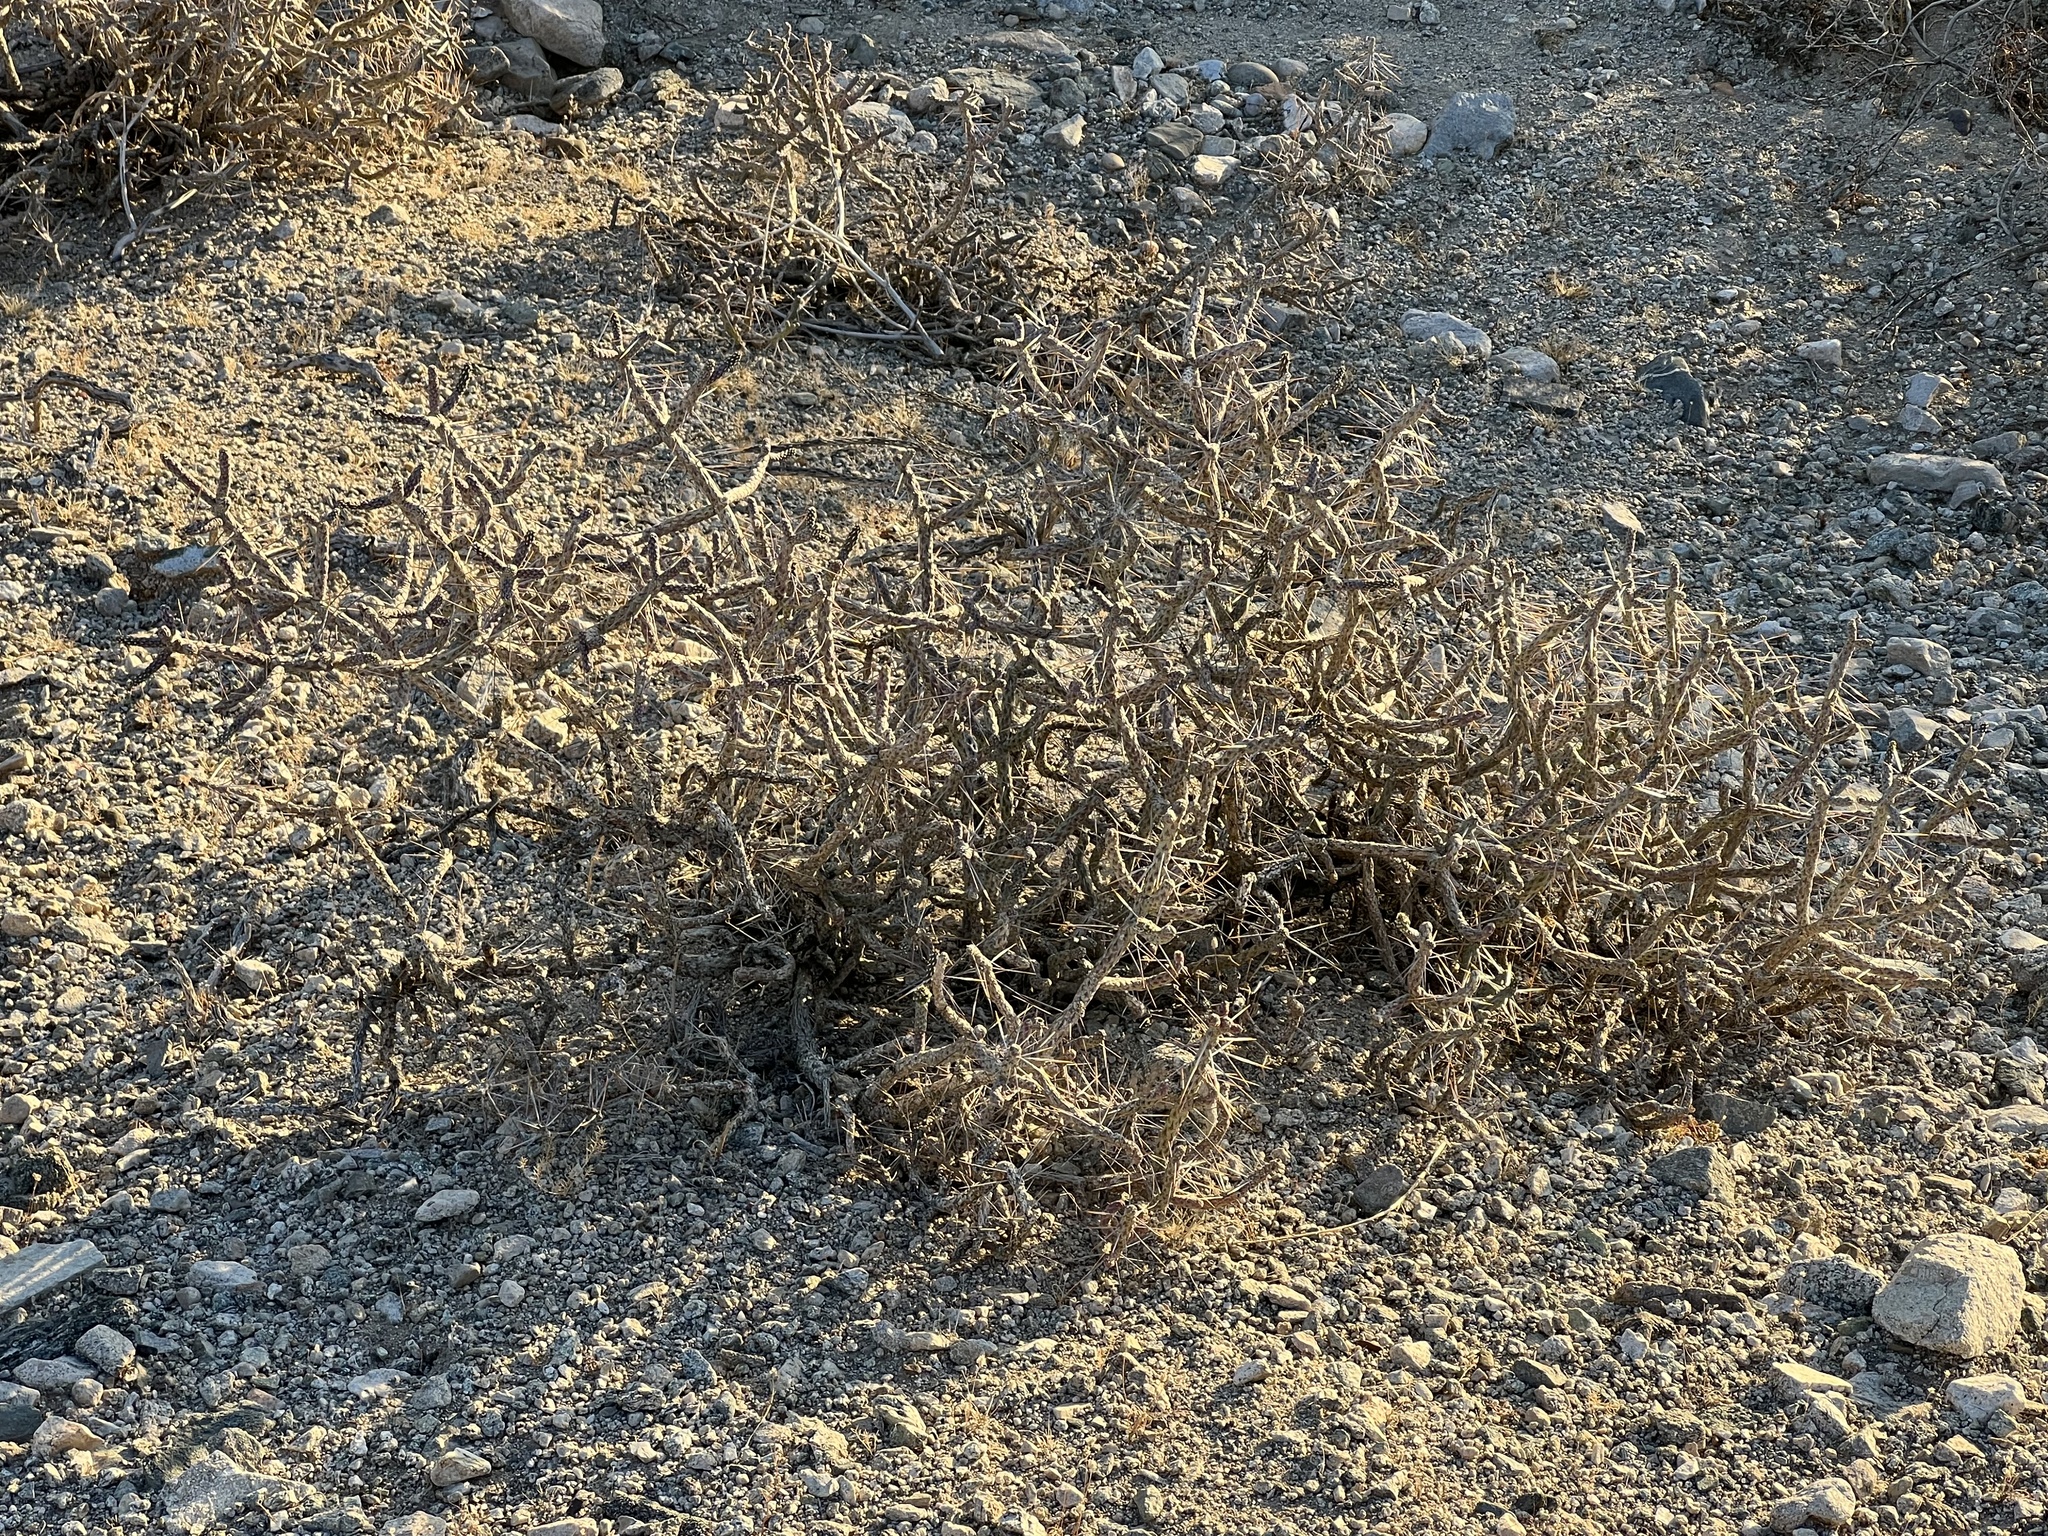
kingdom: Plantae
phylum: Tracheophyta
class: Magnoliopsida
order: Caryophyllales
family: Cactaceae
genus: Cylindropuntia
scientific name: Cylindropuntia ramosissima
